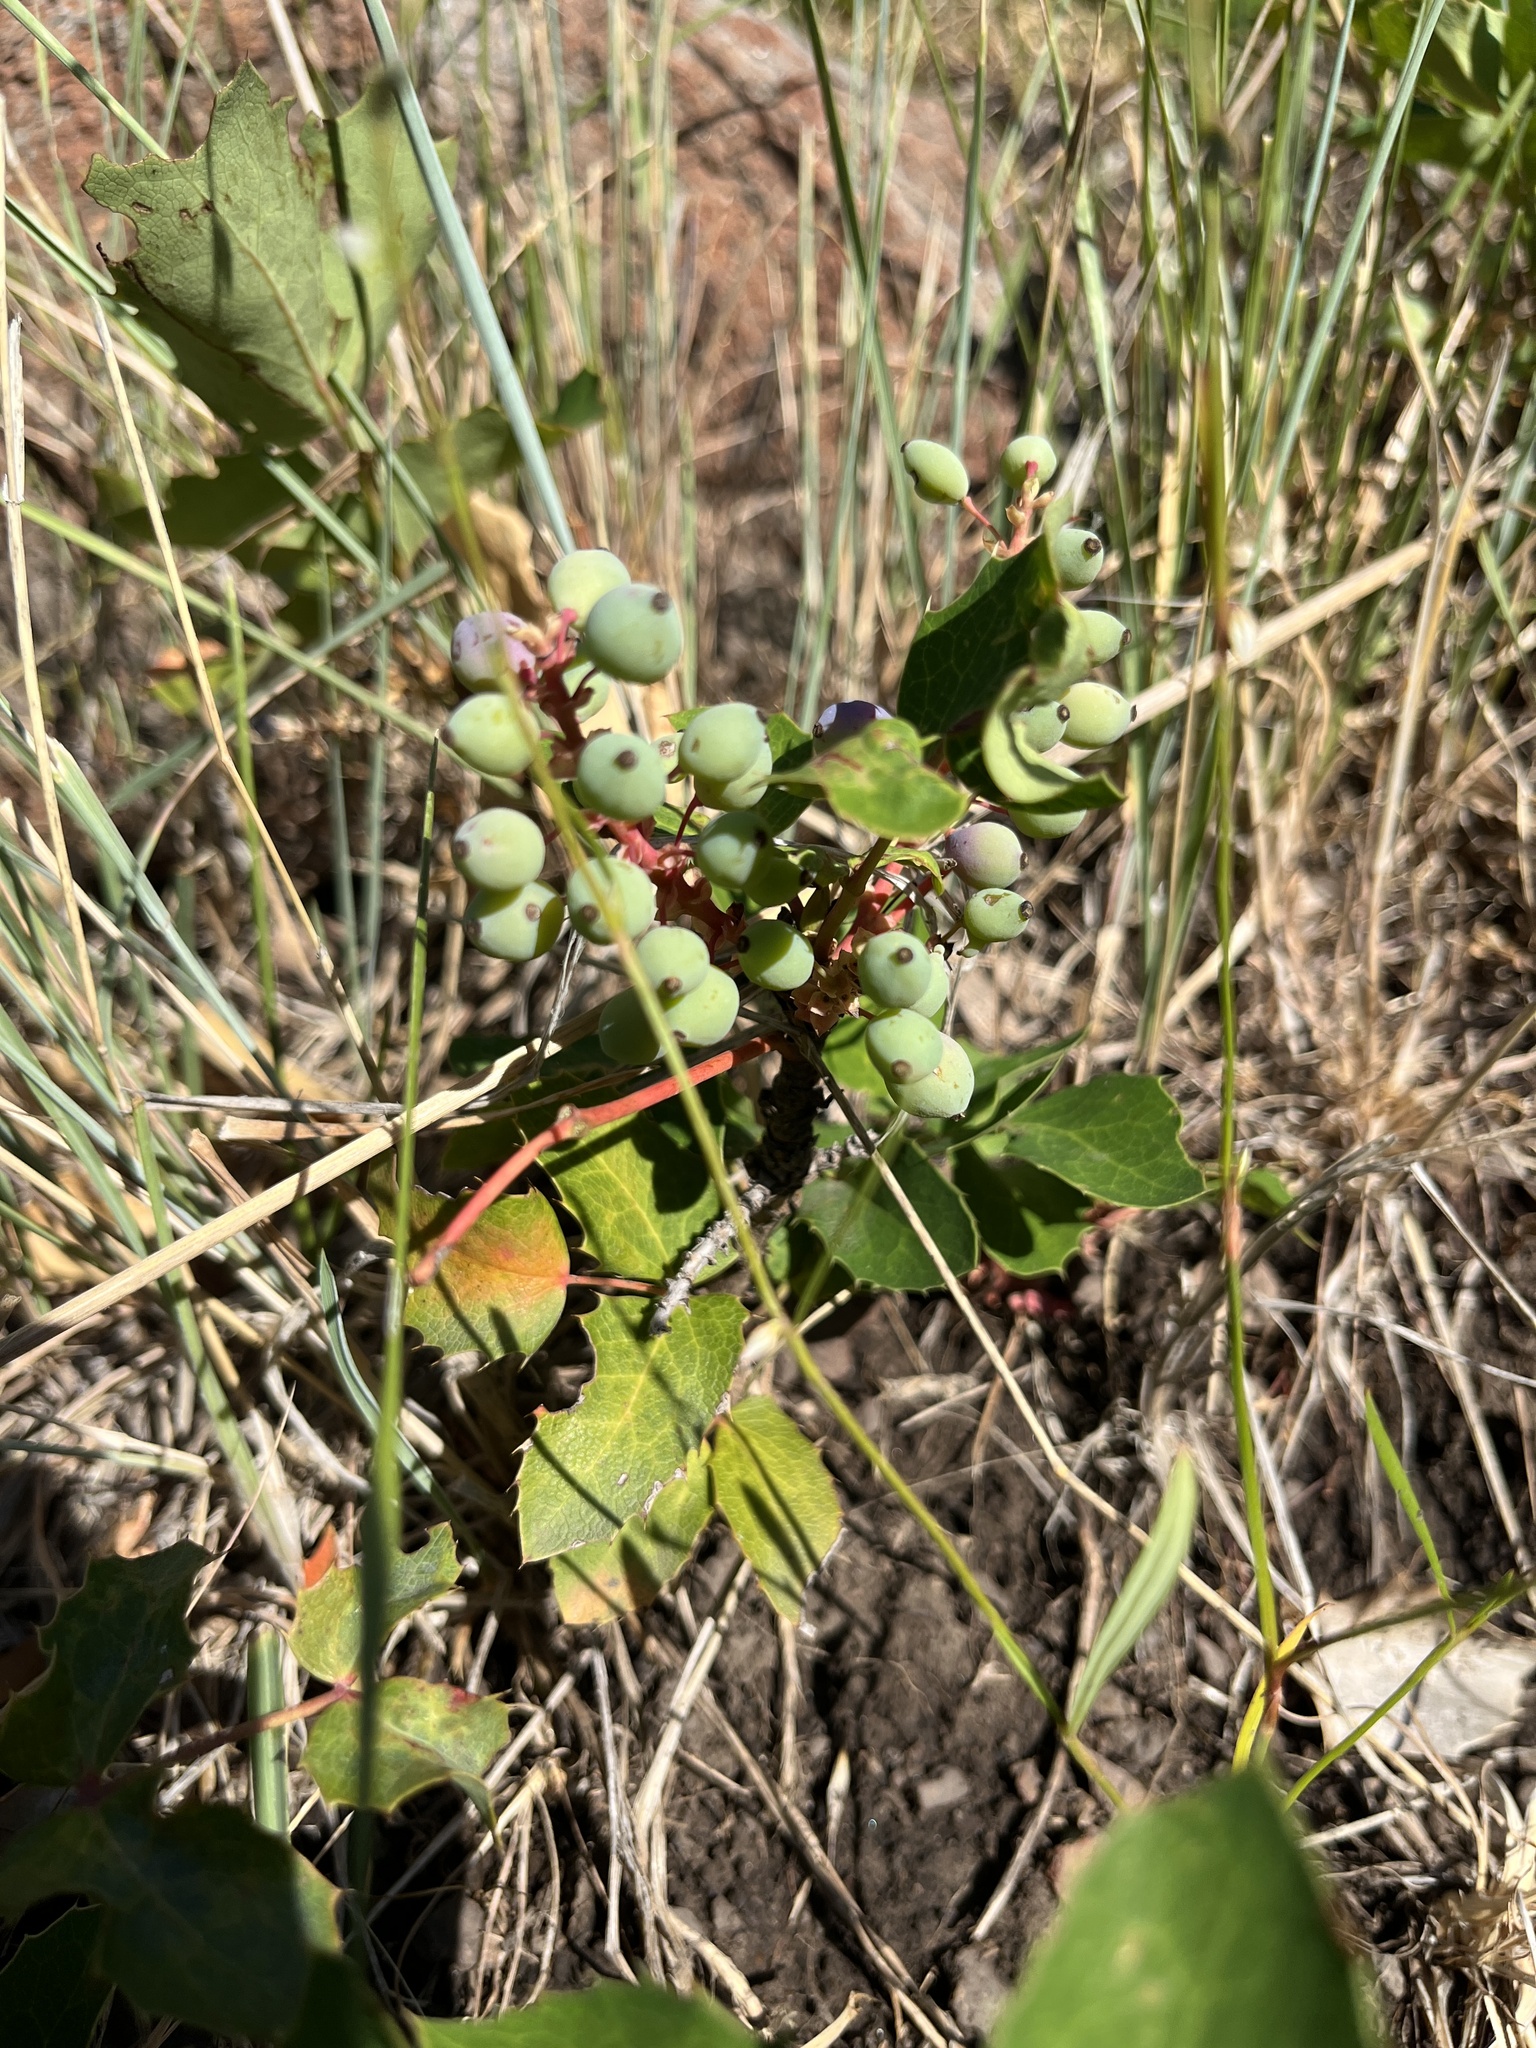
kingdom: Plantae
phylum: Tracheophyta
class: Magnoliopsida
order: Ranunculales
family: Berberidaceae
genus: Mahonia
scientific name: Mahonia repens
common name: Creeping oregon-grape
